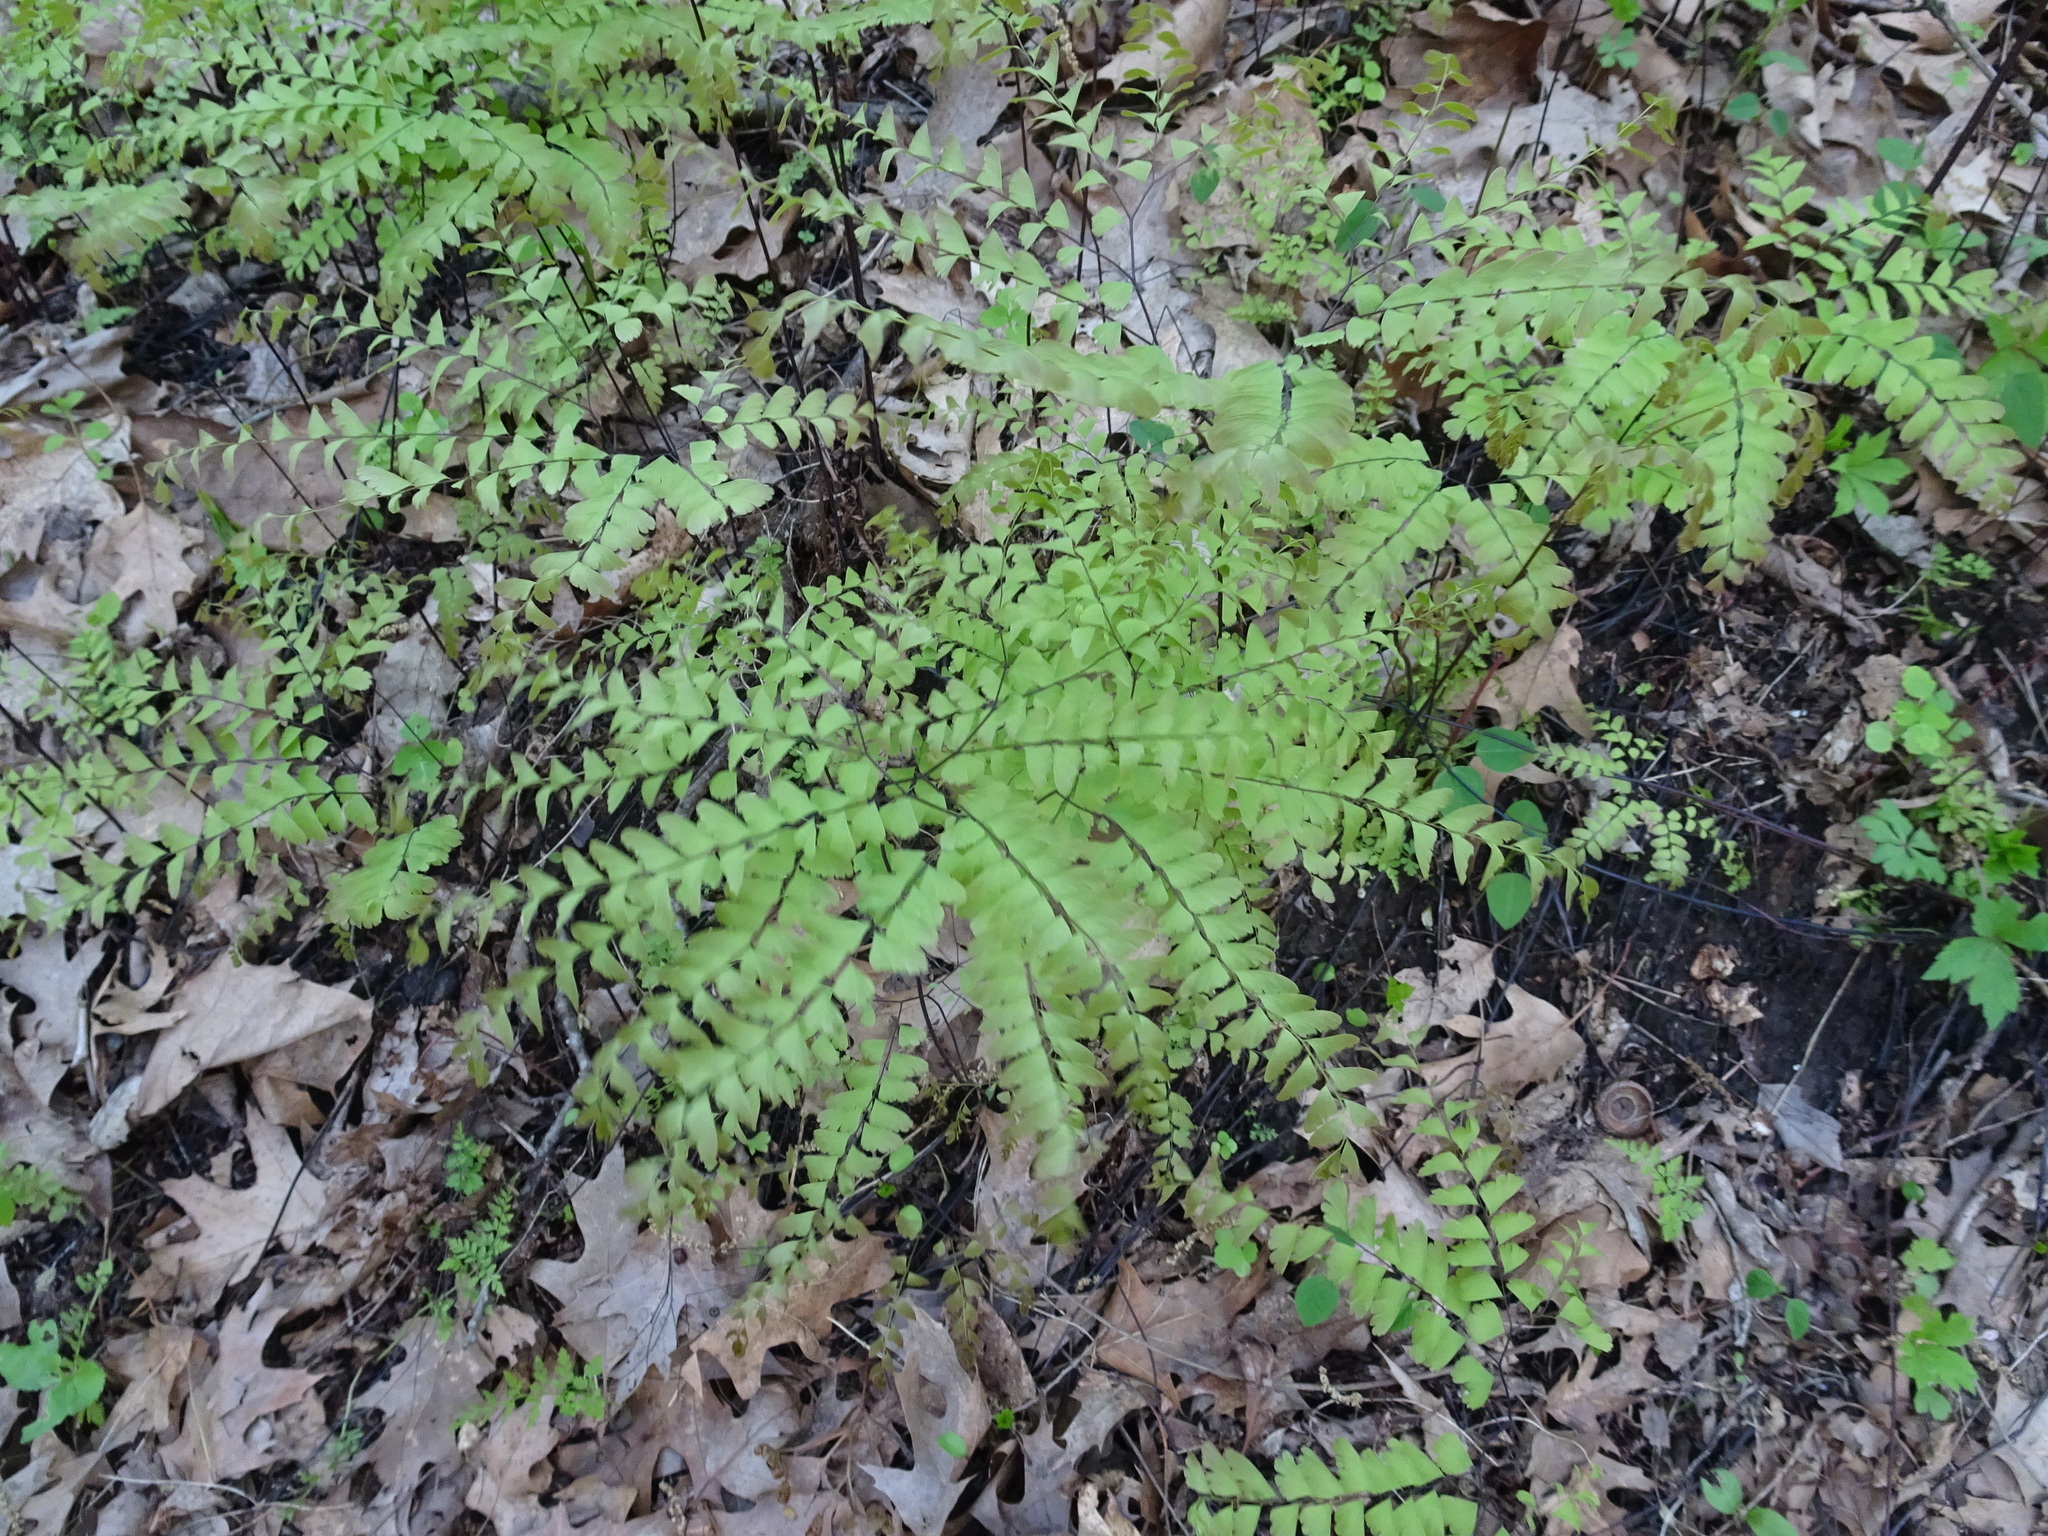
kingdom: Plantae
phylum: Tracheophyta
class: Polypodiopsida
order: Polypodiales
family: Pteridaceae
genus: Adiantum
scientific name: Adiantum pedatum
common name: Five-finger fern
